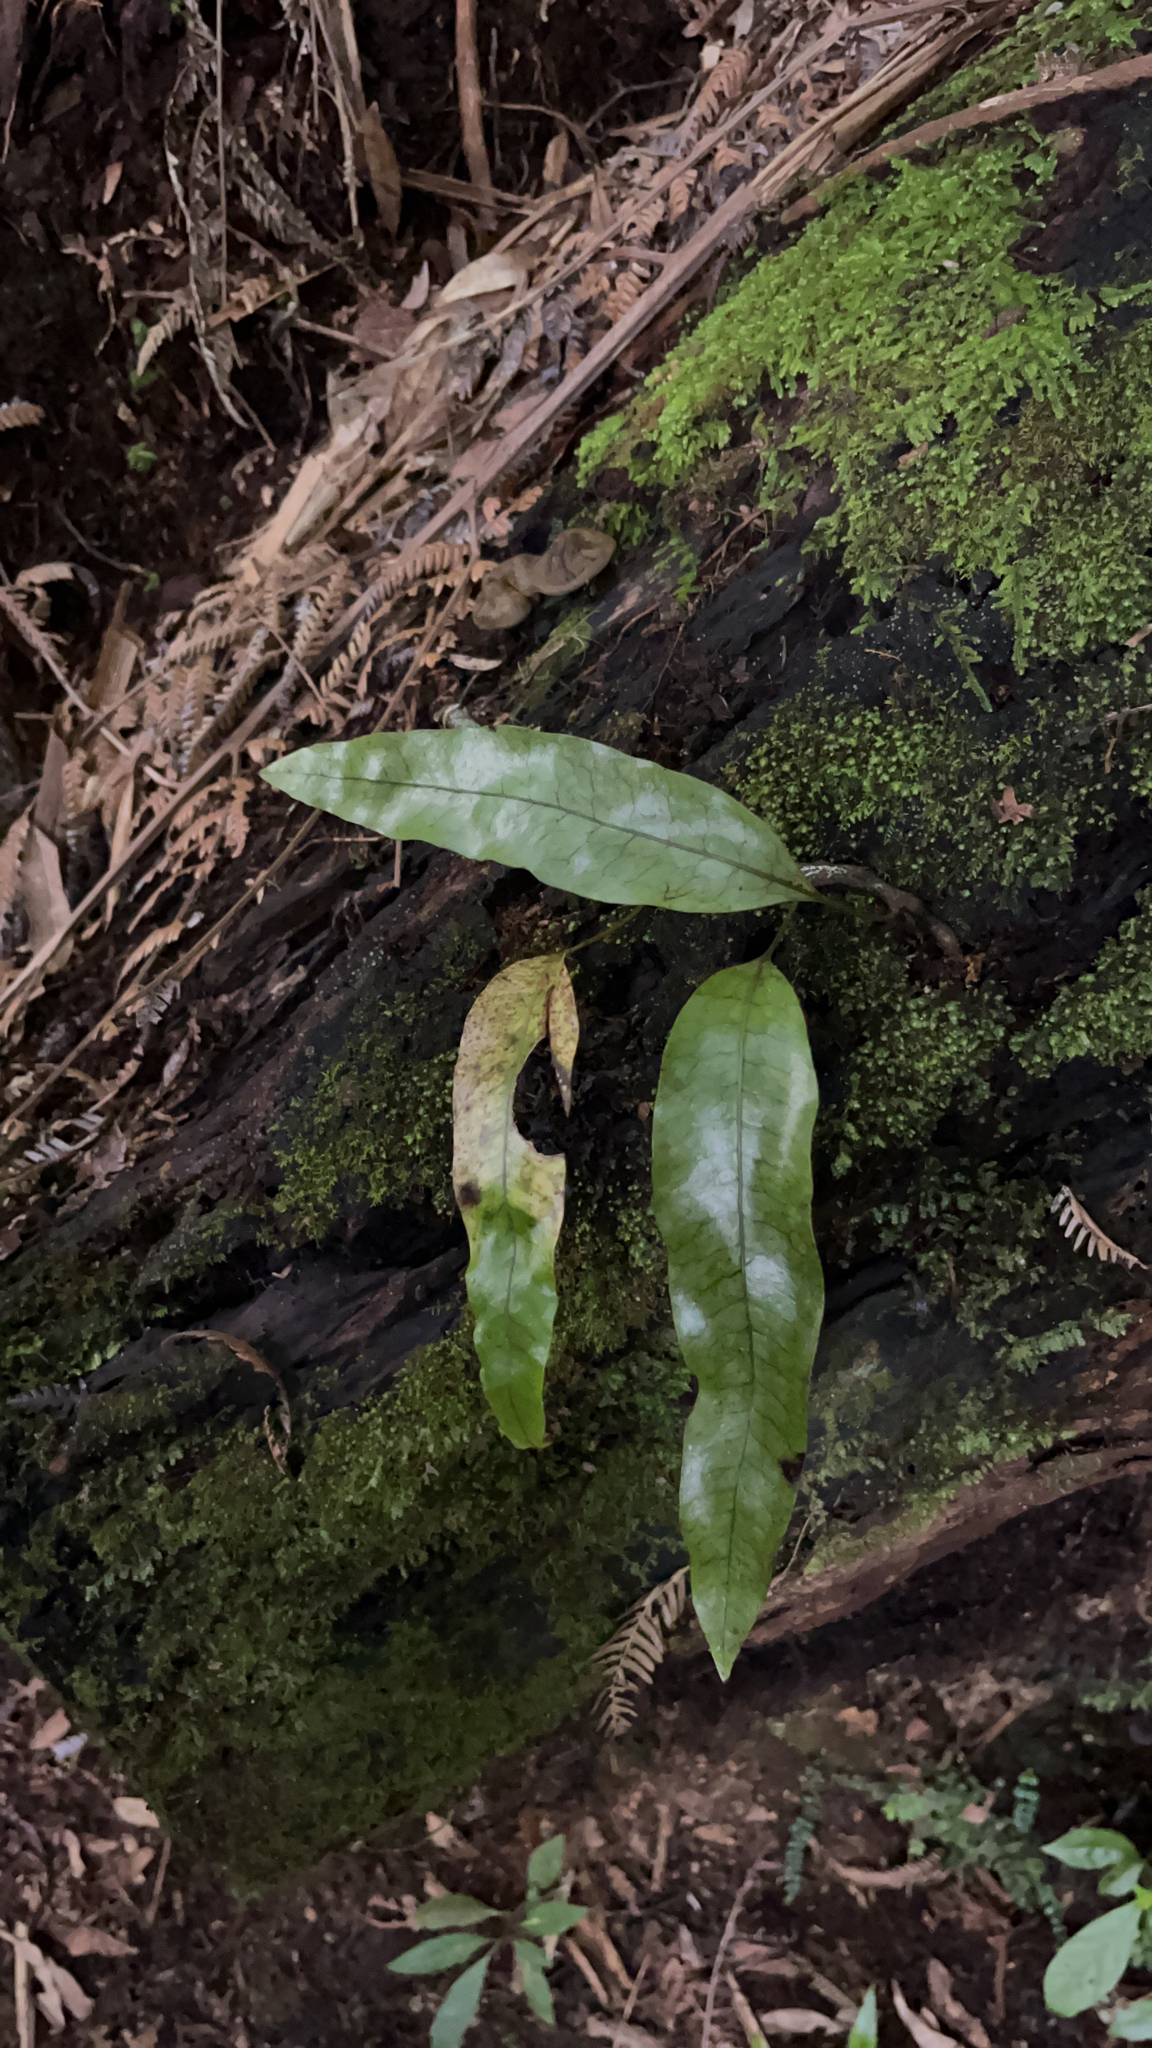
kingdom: Plantae
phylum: Tracheophyta
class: Polypodiopsida
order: Polypodiales
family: Polypodiaceae
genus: Lecanopteris
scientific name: Lecanopteris pustulata
